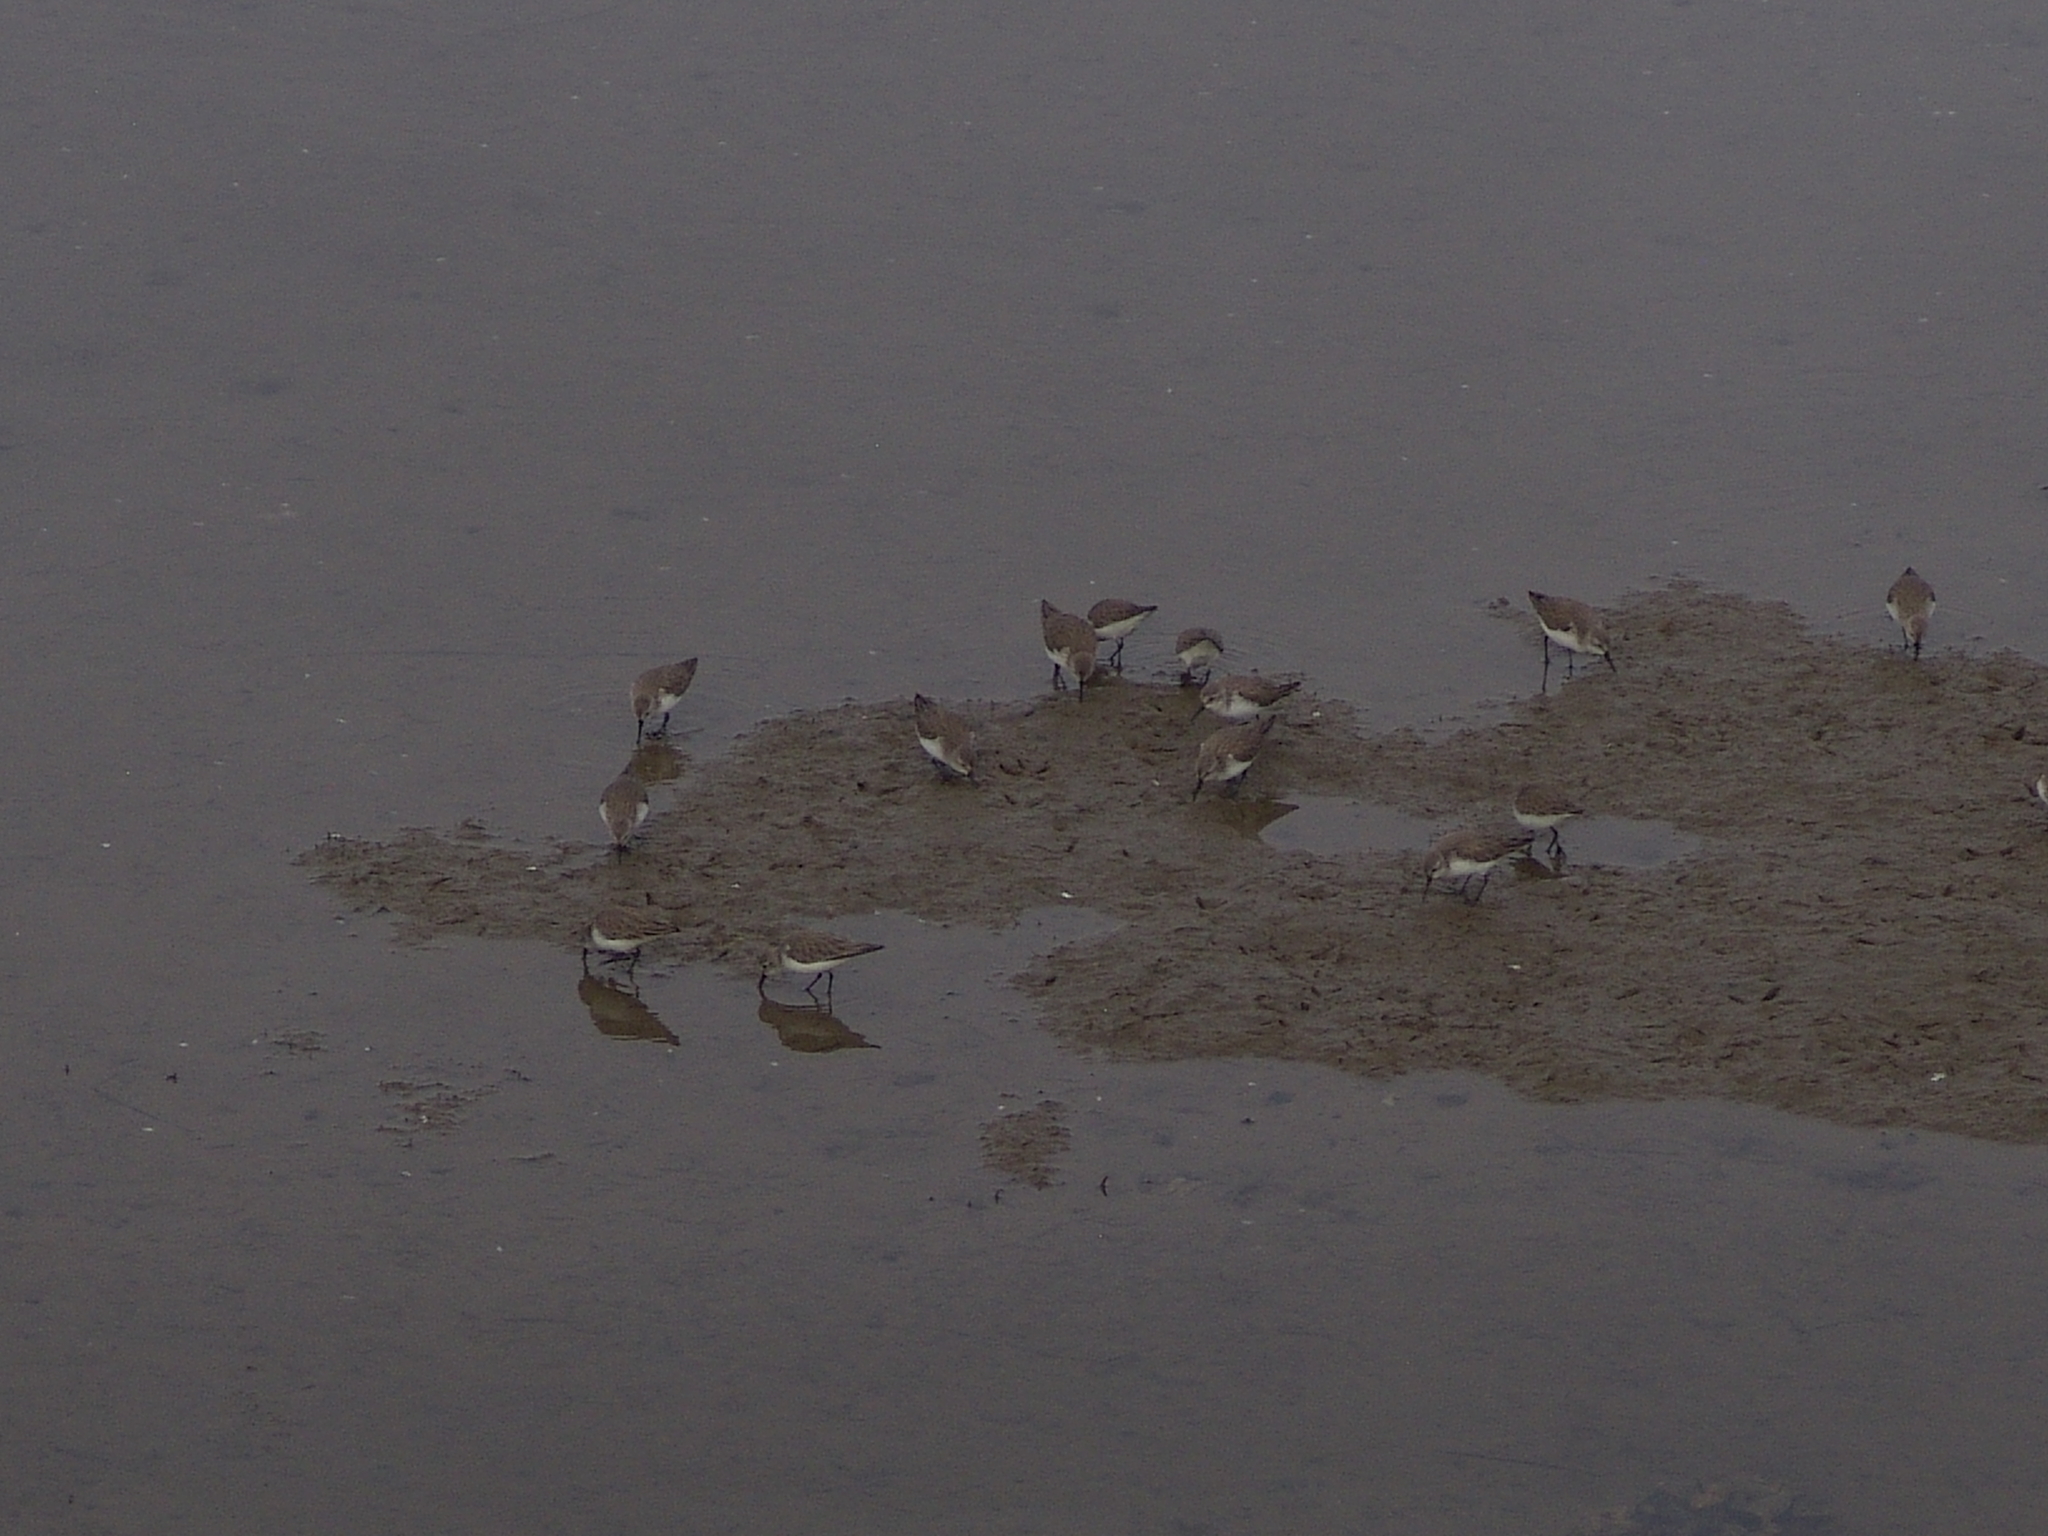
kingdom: Animalia
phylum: Chordata
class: Aves
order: Charadriiformes
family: Scolopacidae
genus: Calidris
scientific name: Calidris alba
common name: Sanderling
